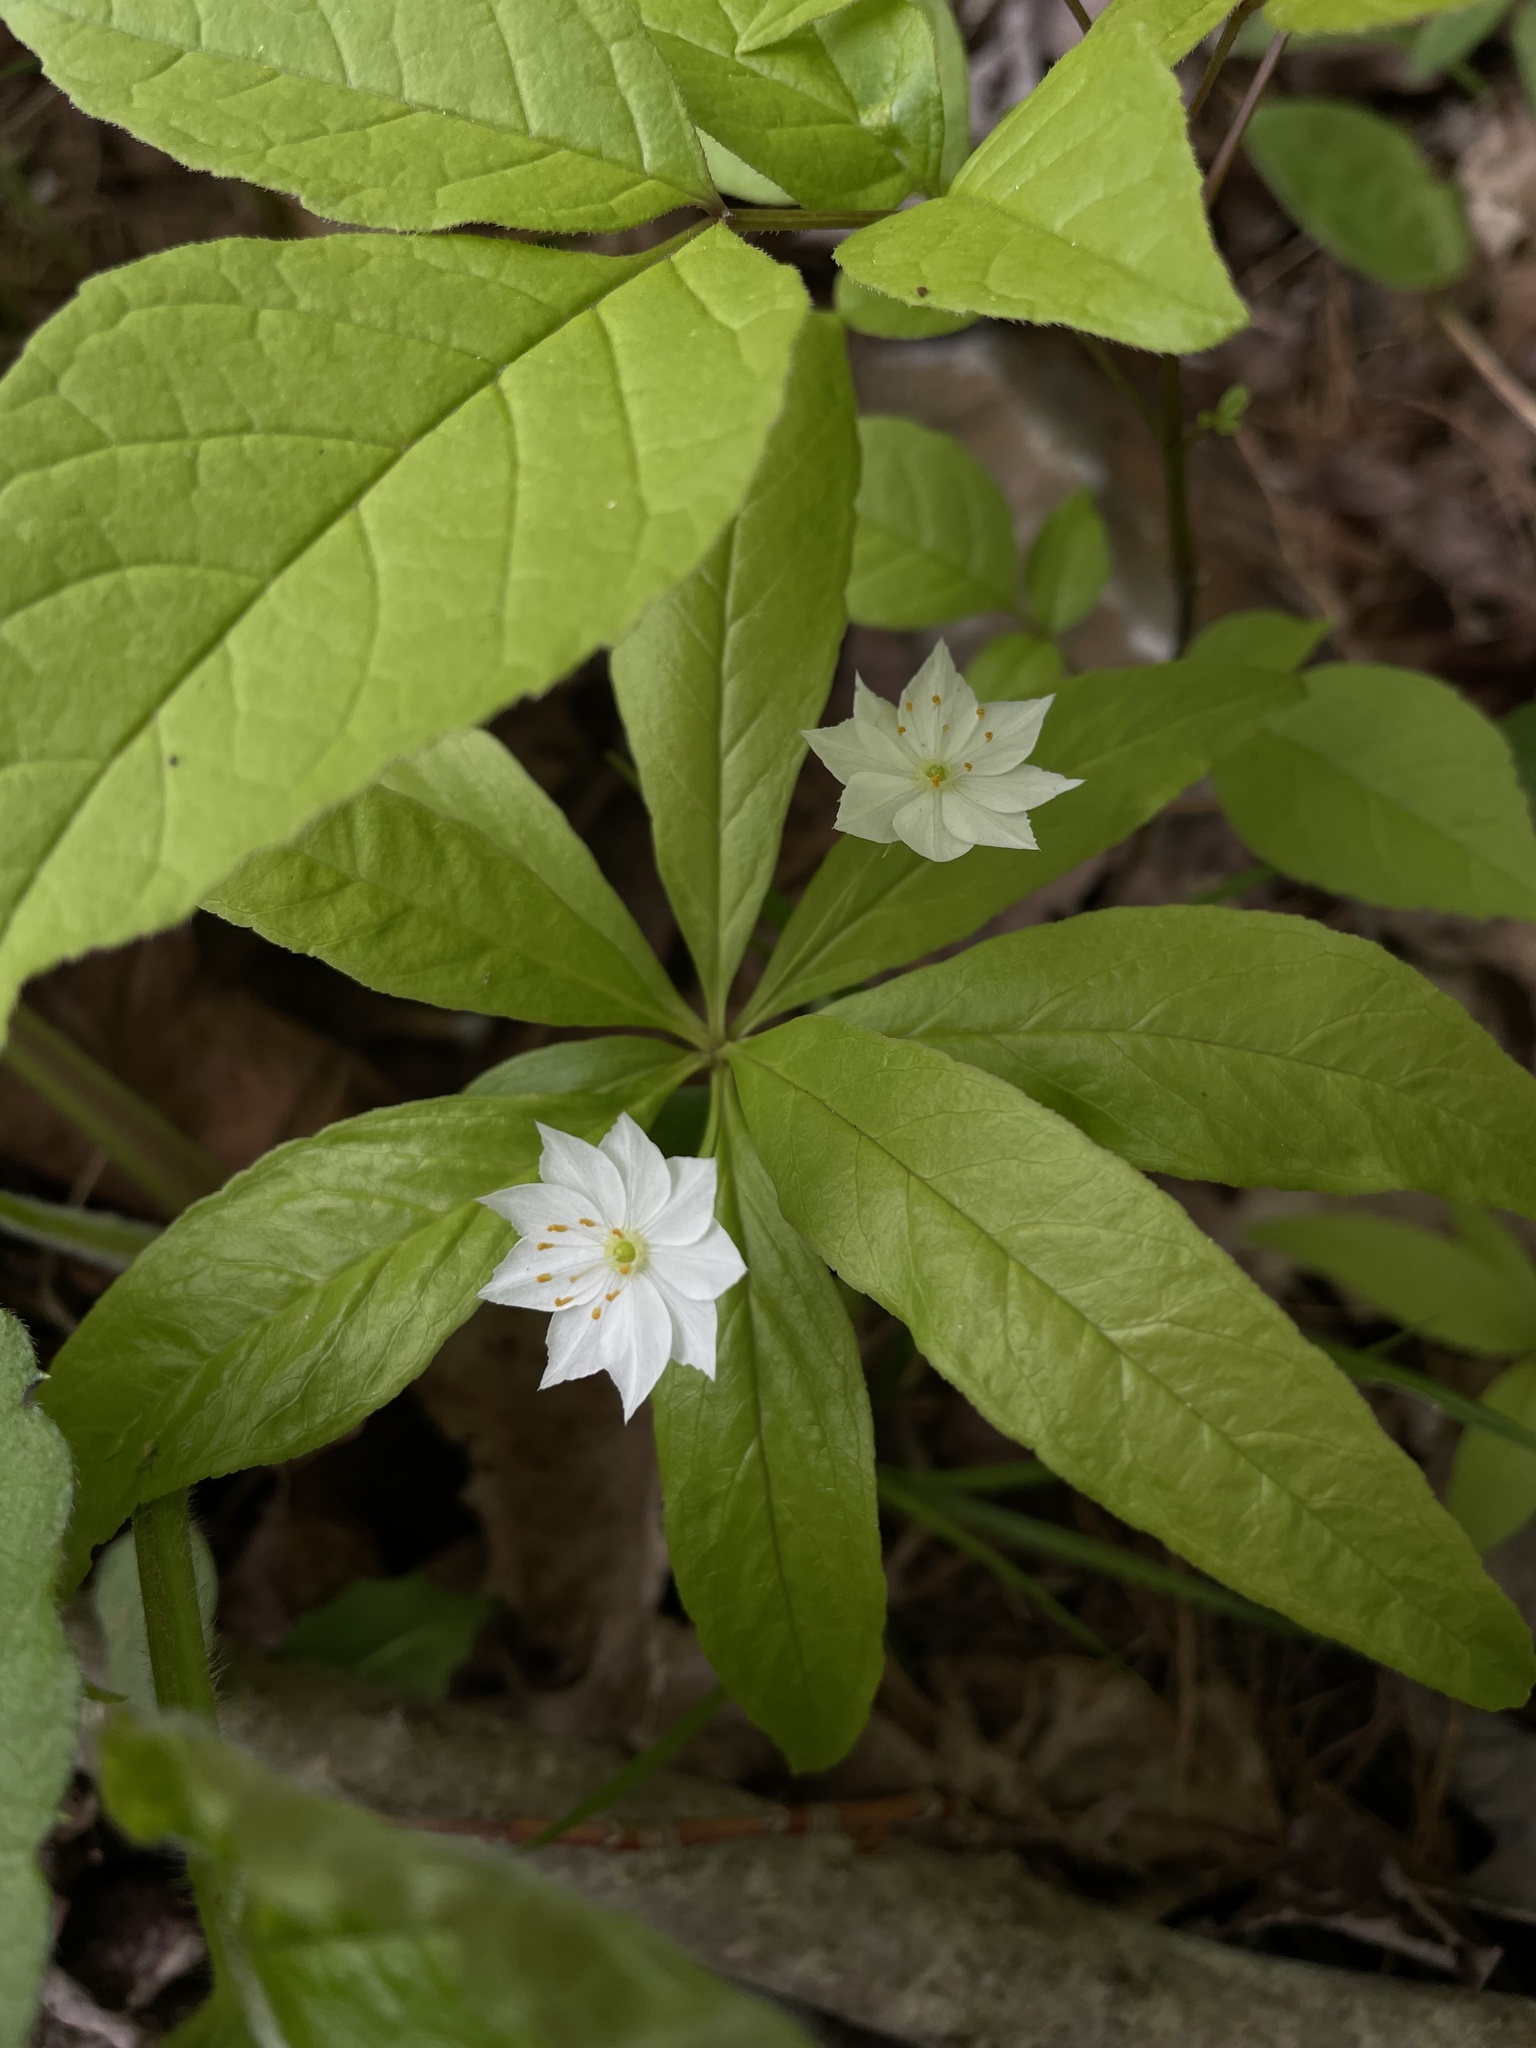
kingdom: Plantae
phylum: Tracheophyta
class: Magnoliopsida
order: Ericales
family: Primulaceae
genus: Lysimachia
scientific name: Lysimachia borealis
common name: American starflower
